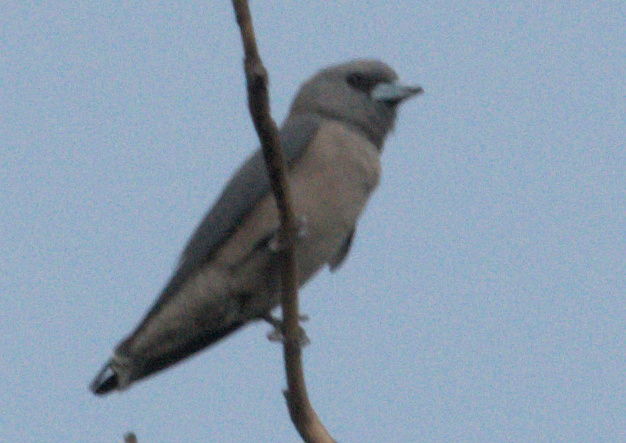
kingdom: Animalia
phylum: Chordata
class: Aves
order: Passeriformes
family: Artamidae
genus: Artamus
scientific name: Artamus fuscus
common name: Ashy woodswallow
